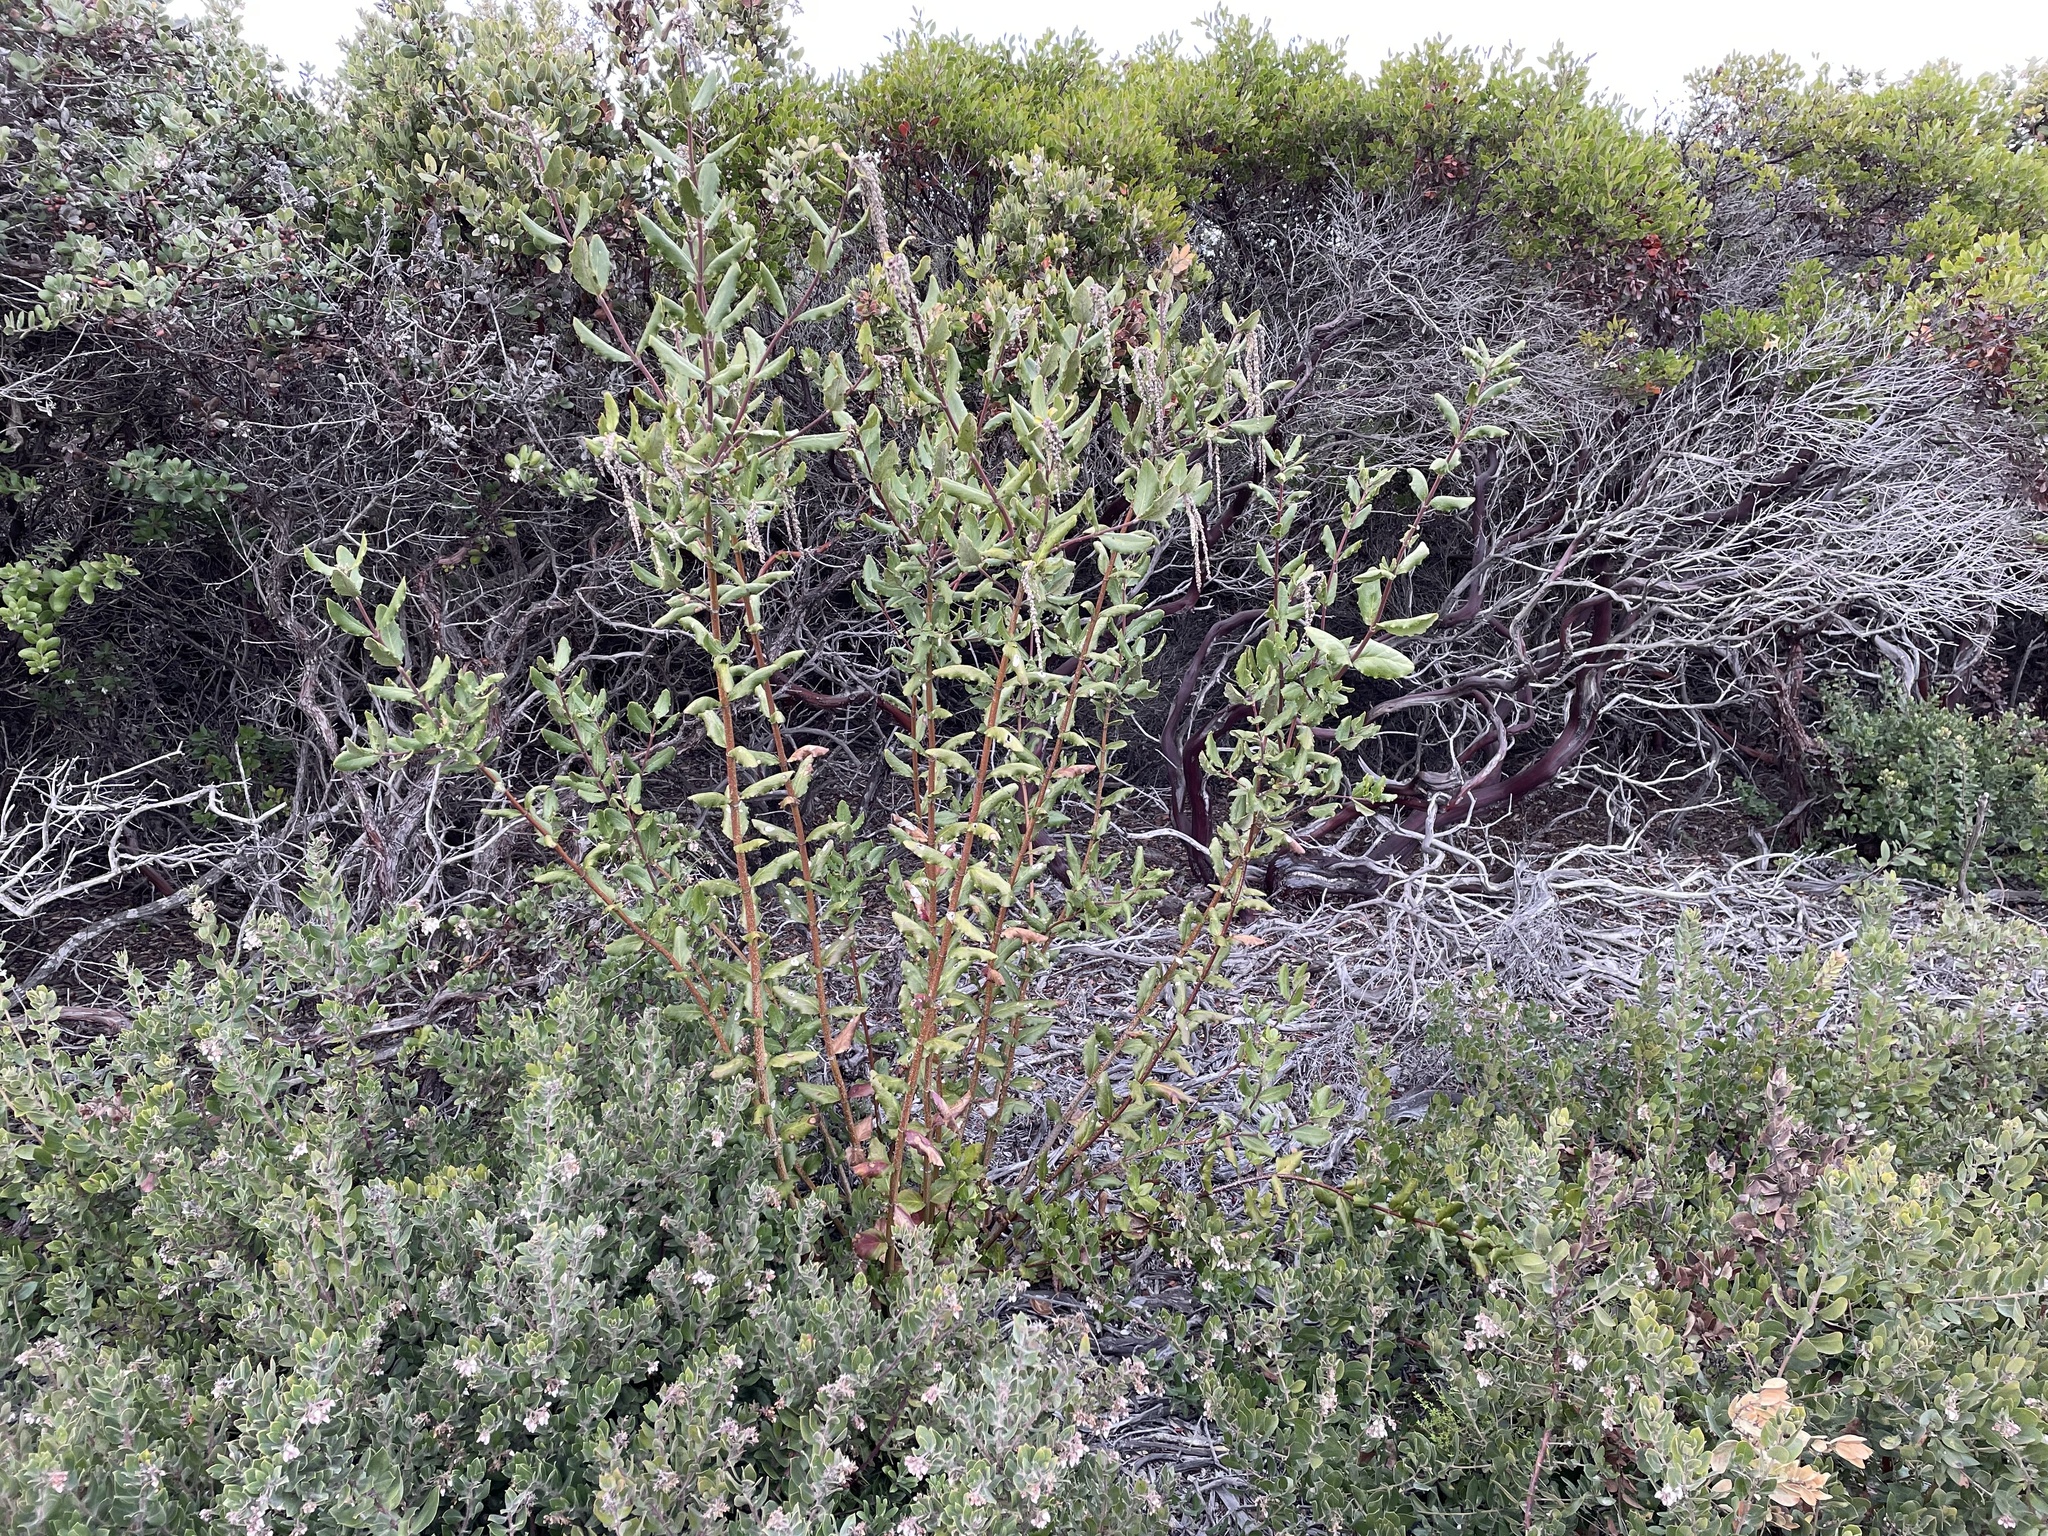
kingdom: Plantae
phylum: Tracheophyta
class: Magnoliopsida
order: Garryales
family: Garryaceae
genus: Garrya
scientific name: Garrya elliptica
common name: Silk-tassel
